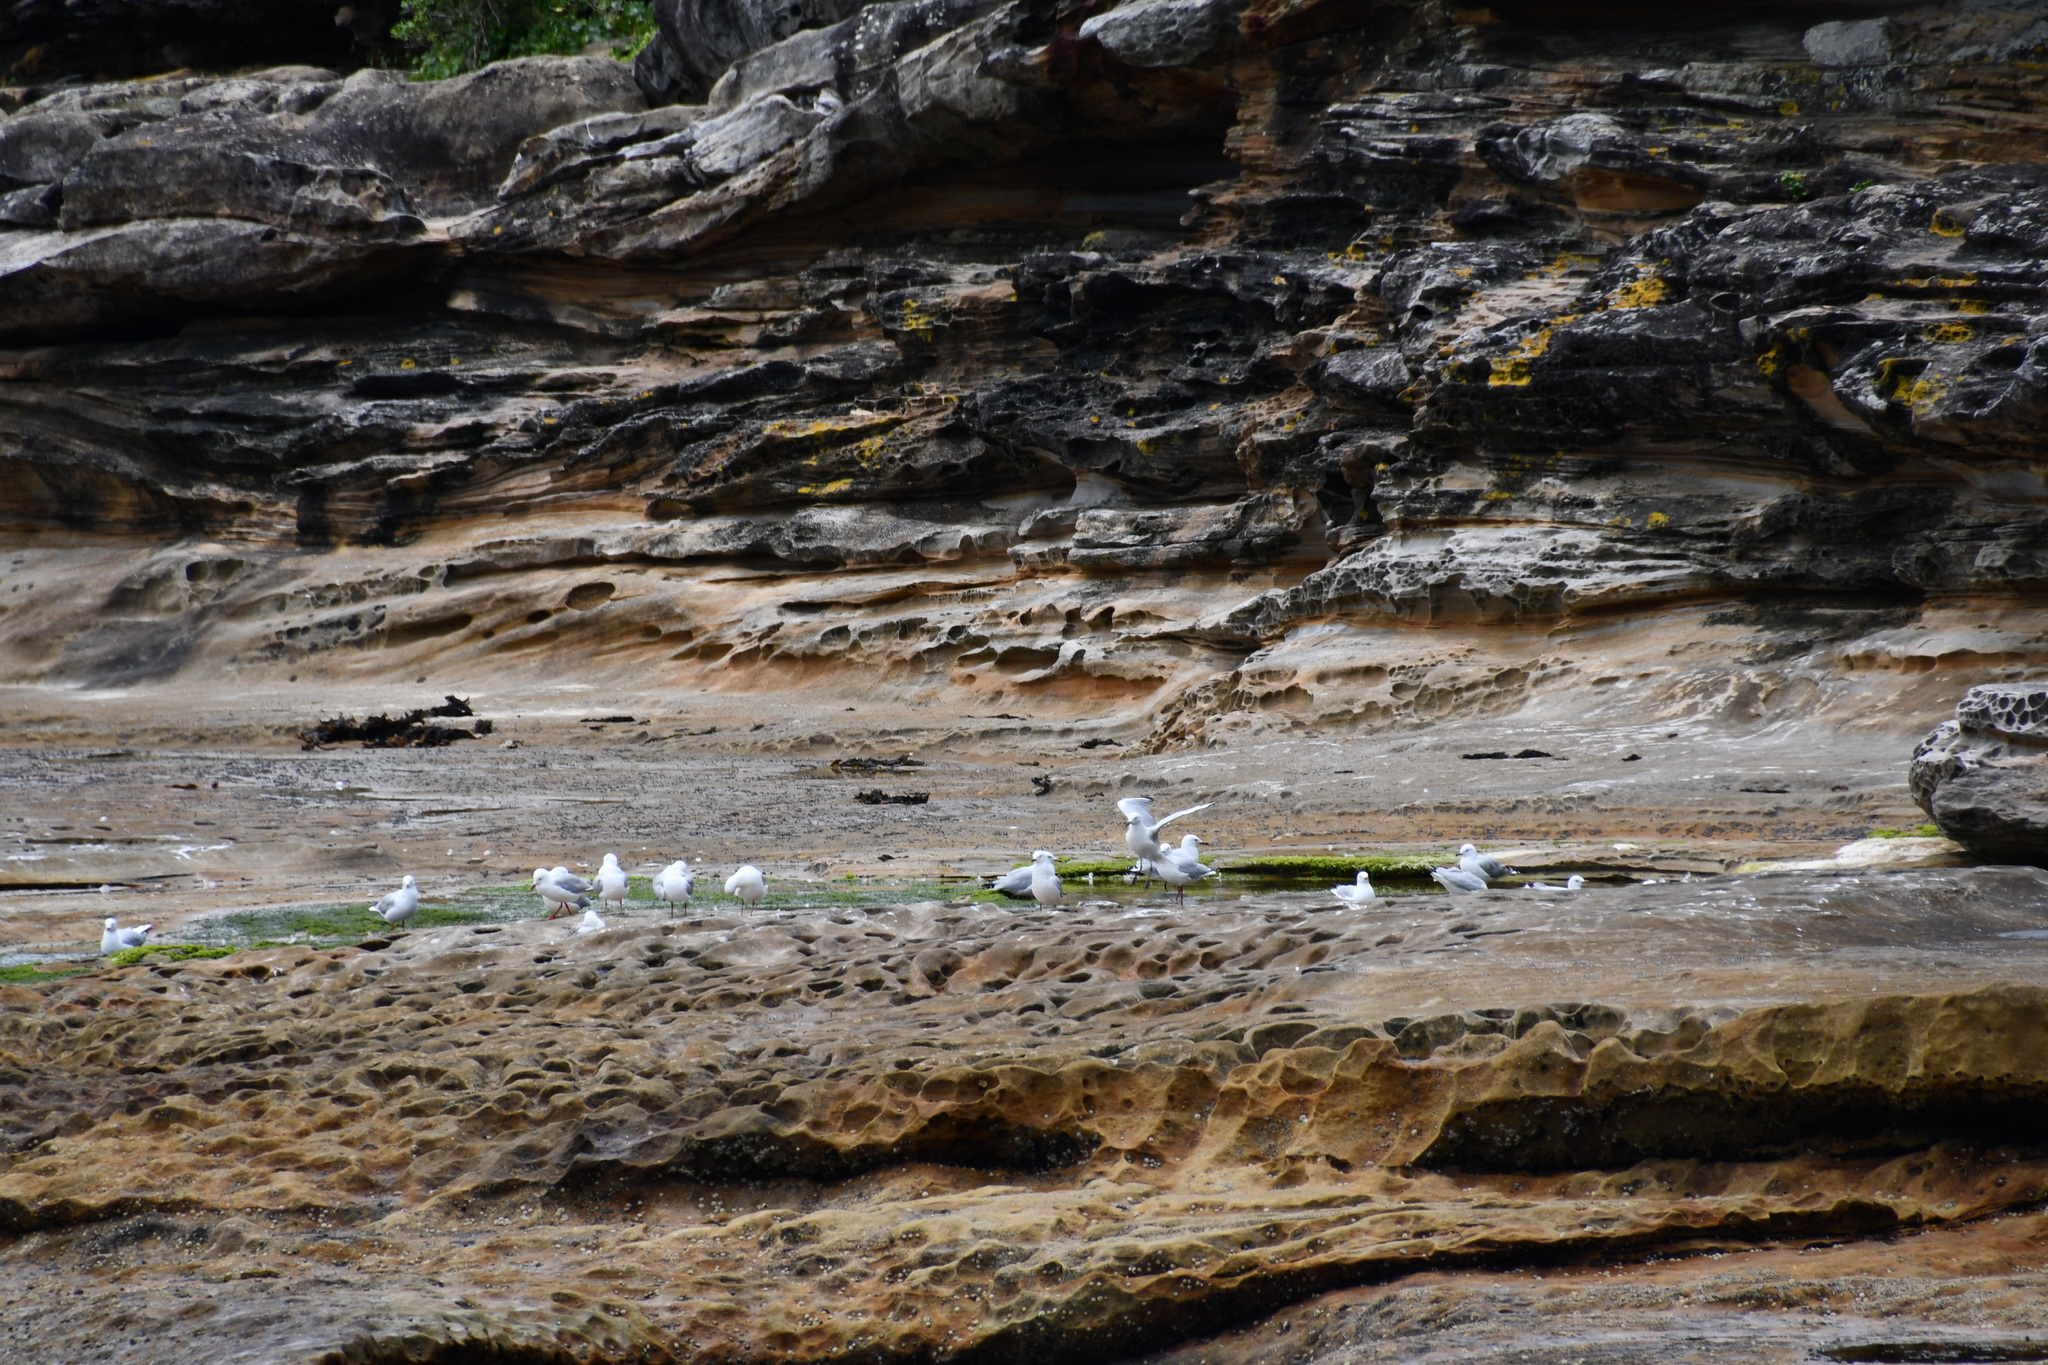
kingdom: Animalia
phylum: Chordata
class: Aves
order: Charadriiformes
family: Laridae
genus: Chroicocephalus
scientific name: Chroicocephalus novaehollandiae
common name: Silver gull
